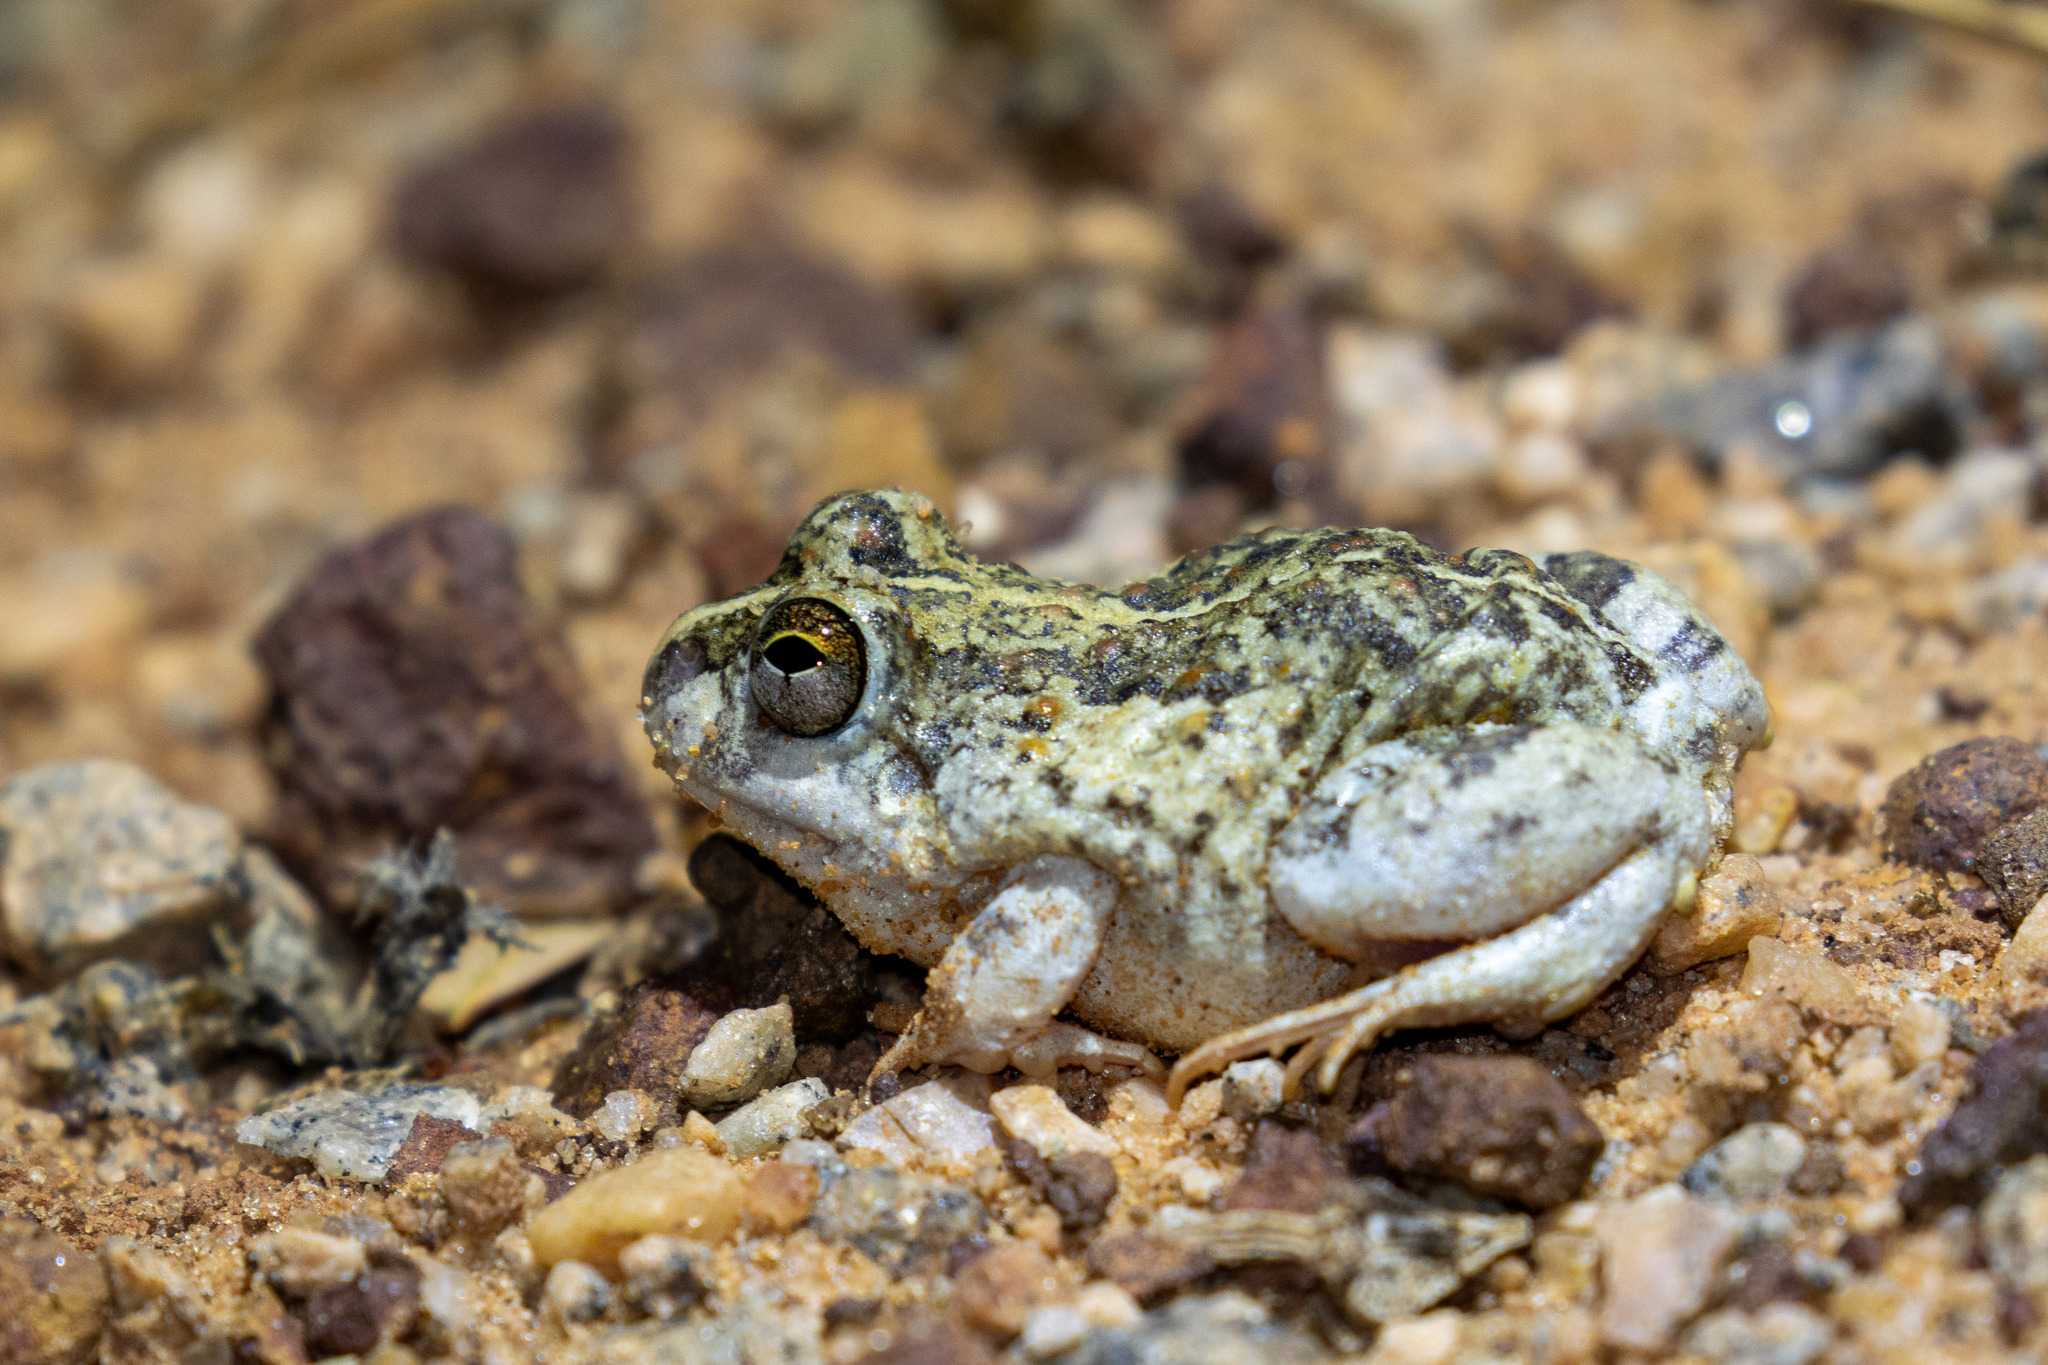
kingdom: Animalia
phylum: Chordata
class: Amphibia
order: Anura
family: Leptodactylidae
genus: Pleurodema
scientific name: Pleurodema diplolister
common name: Peters' four-eyed frog
